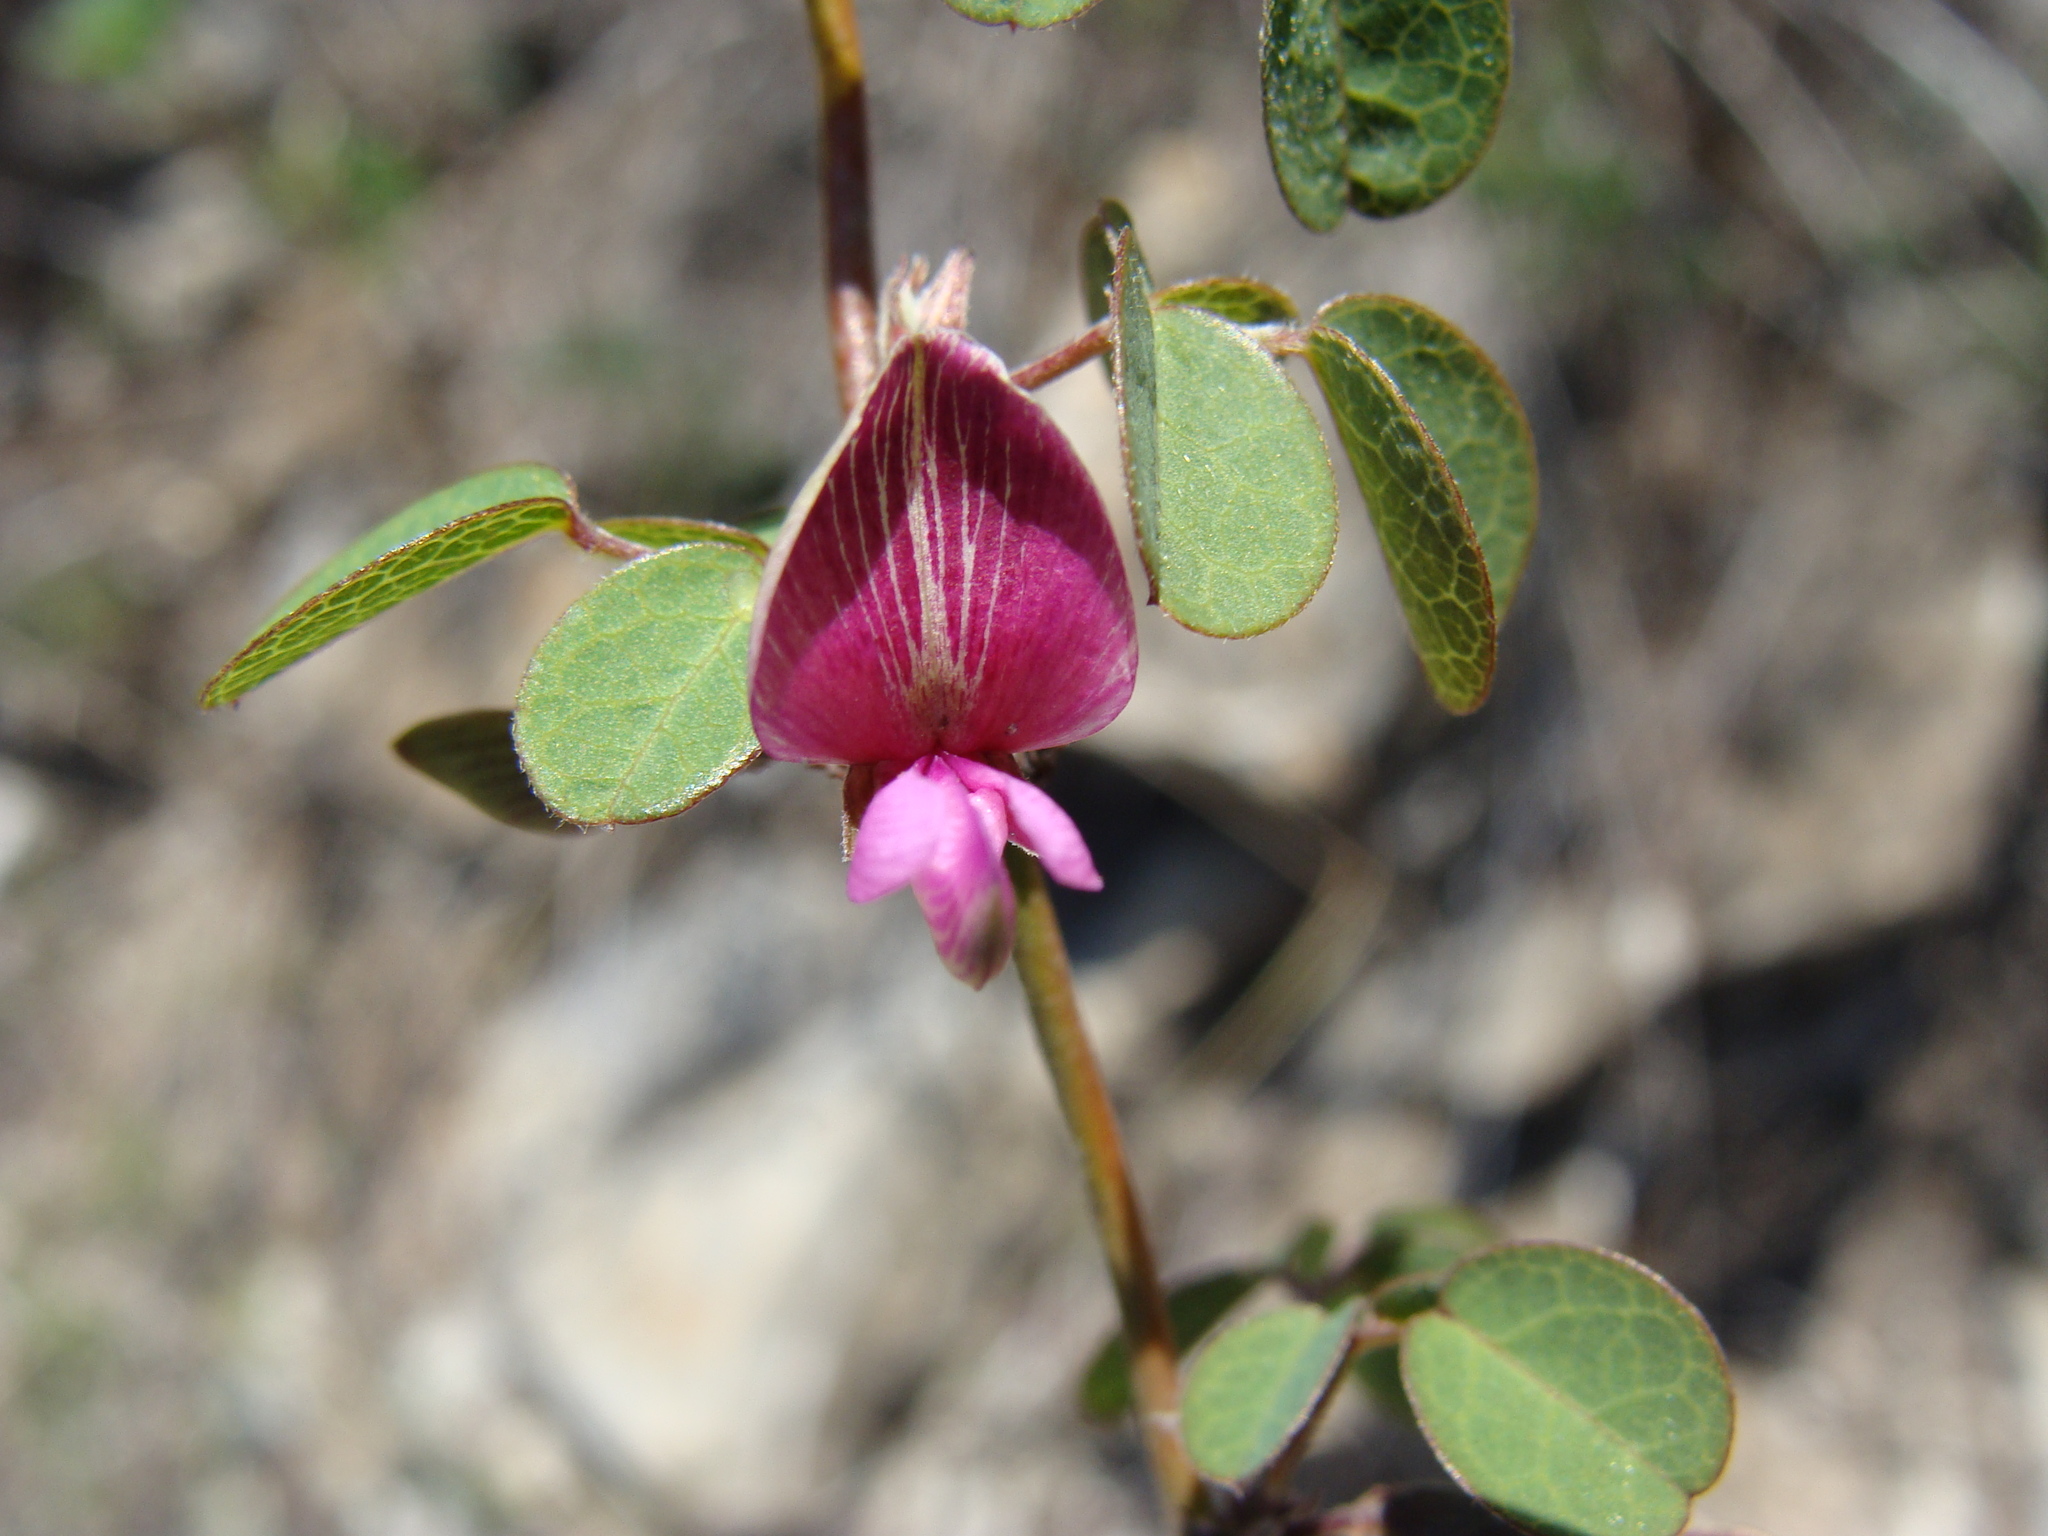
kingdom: Plantae
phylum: Tracheophyta
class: Magnoliopsida
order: Fabales
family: Fabaceae
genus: Nanogalactia
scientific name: Nanogalactia brachystachys
